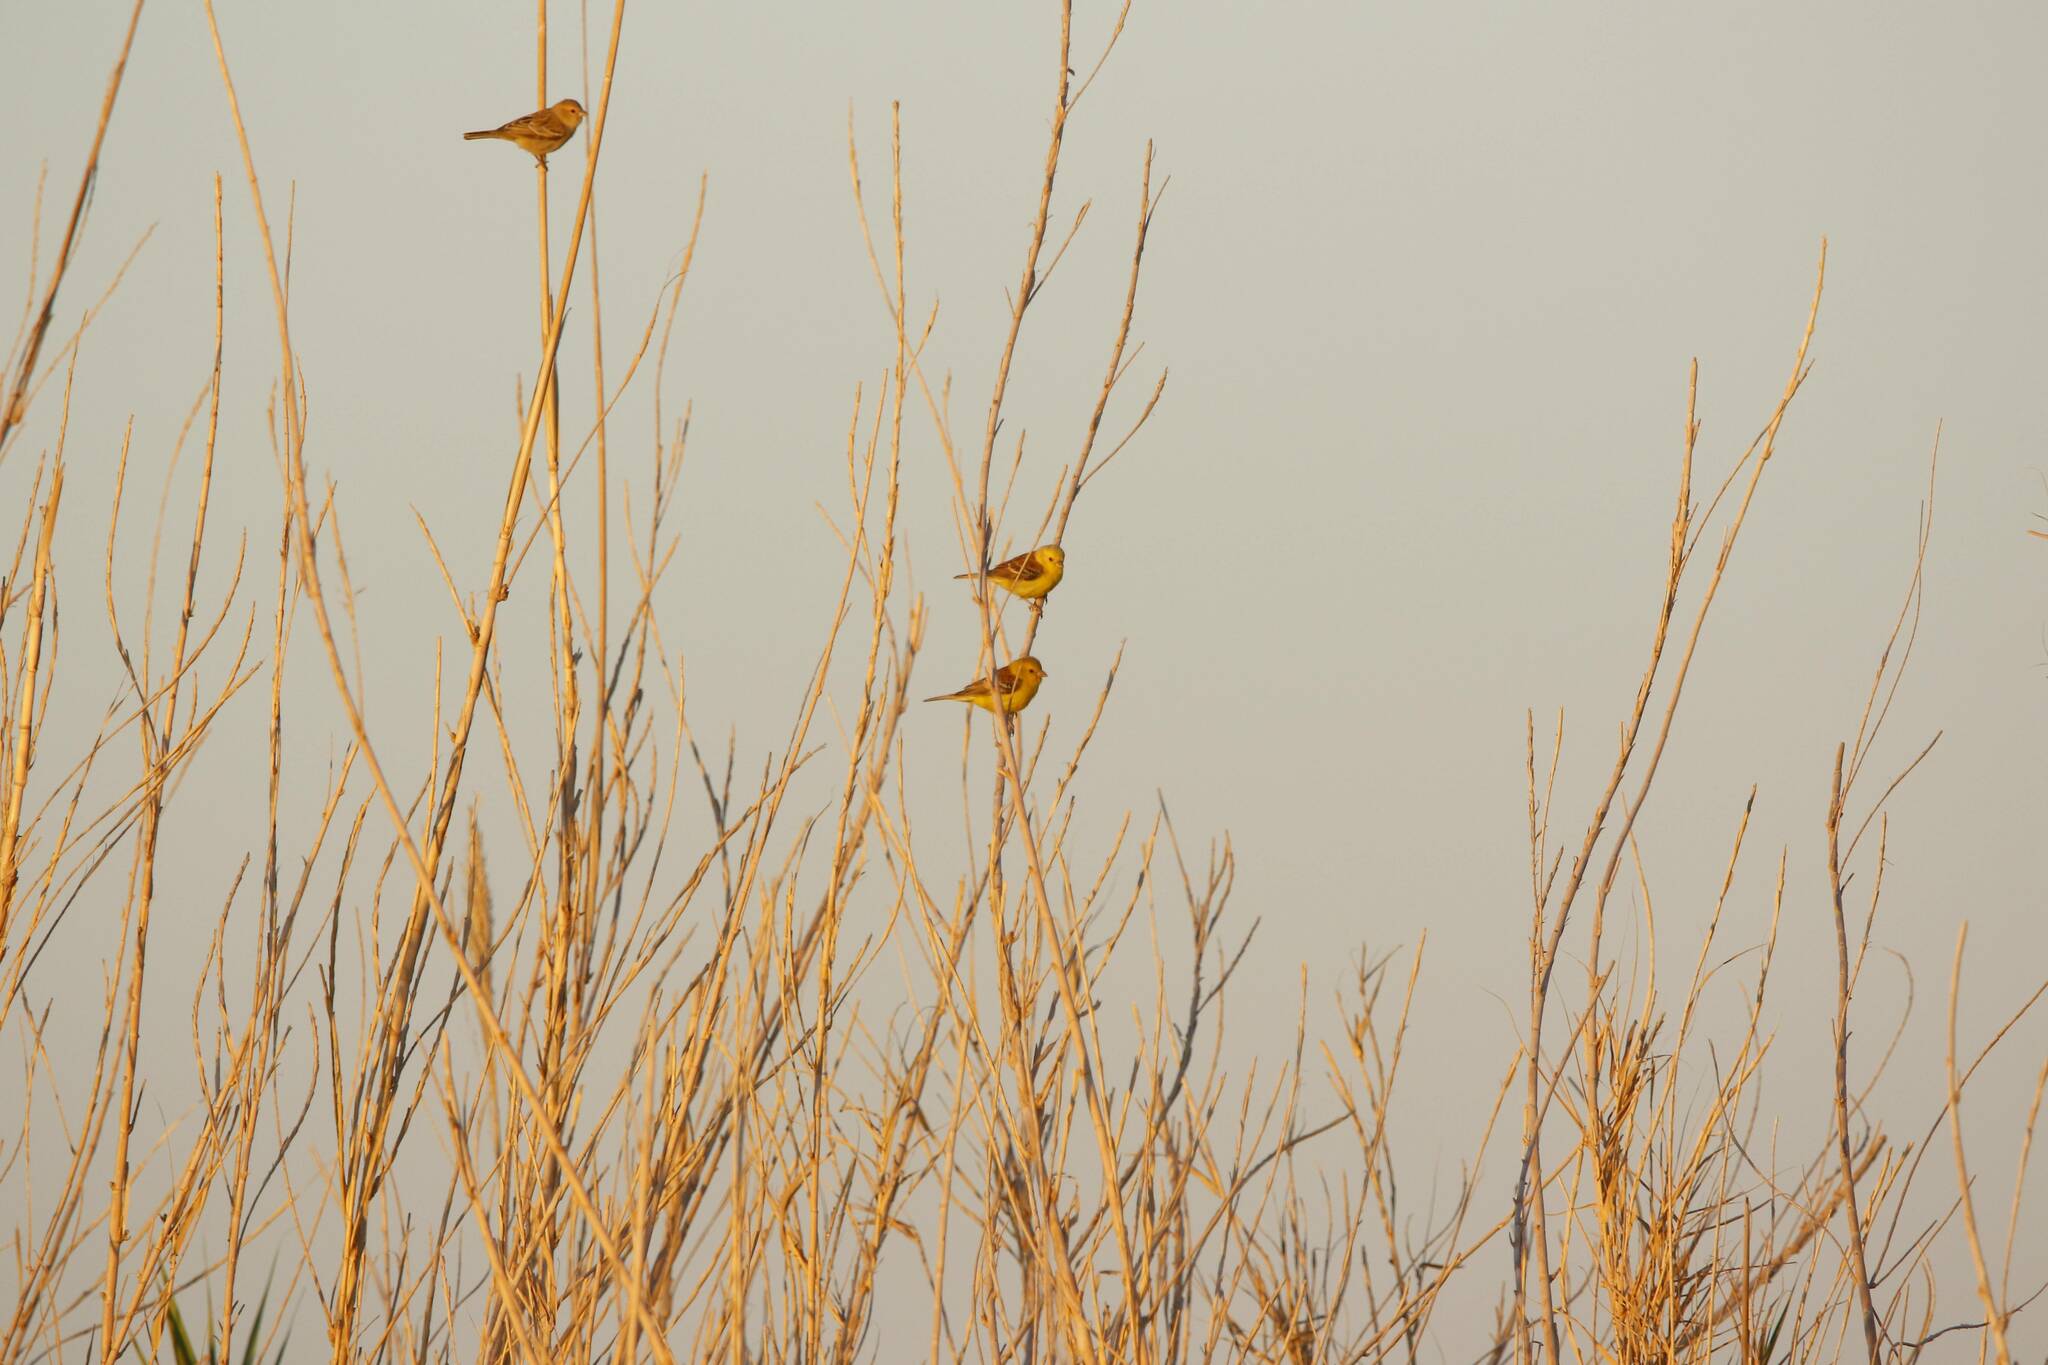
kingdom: Animalia
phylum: Chordata
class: Aves
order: Passeriformes
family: Passeridae
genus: Passer
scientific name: Passer luteus
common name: Sudan golden sparrow
